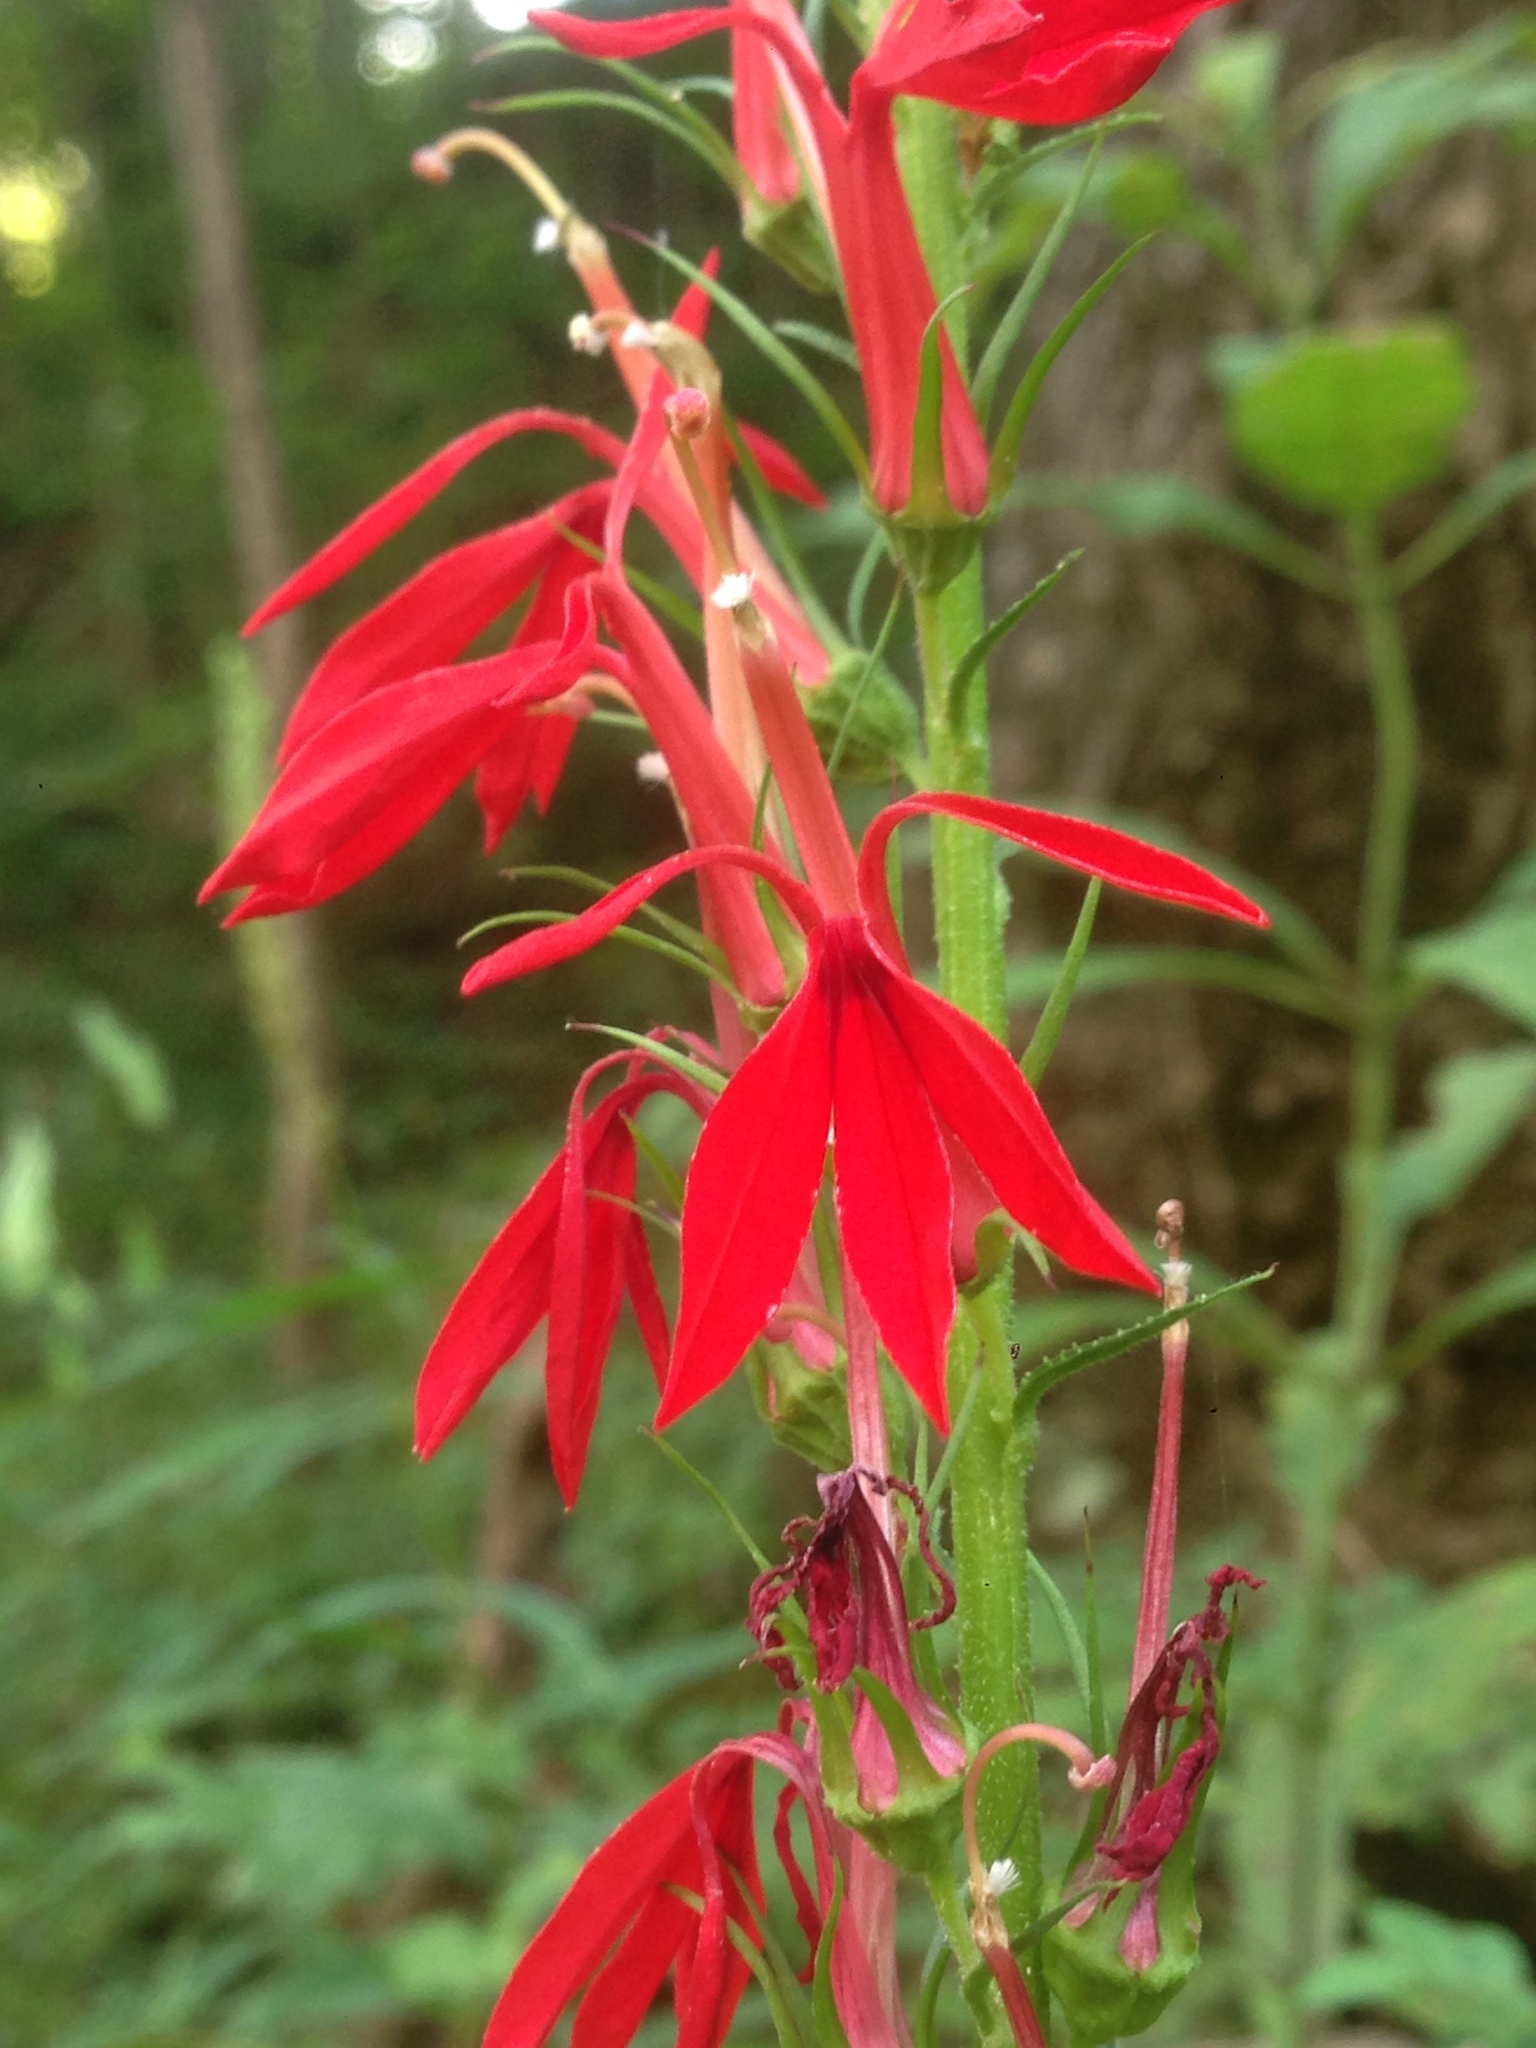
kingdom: Plantae
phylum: Tracheophyta
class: Magnoliopsida
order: Asterales
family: Campanulaceae
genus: Lobelia
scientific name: Lobelia cardinalis
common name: Cardinal flower
